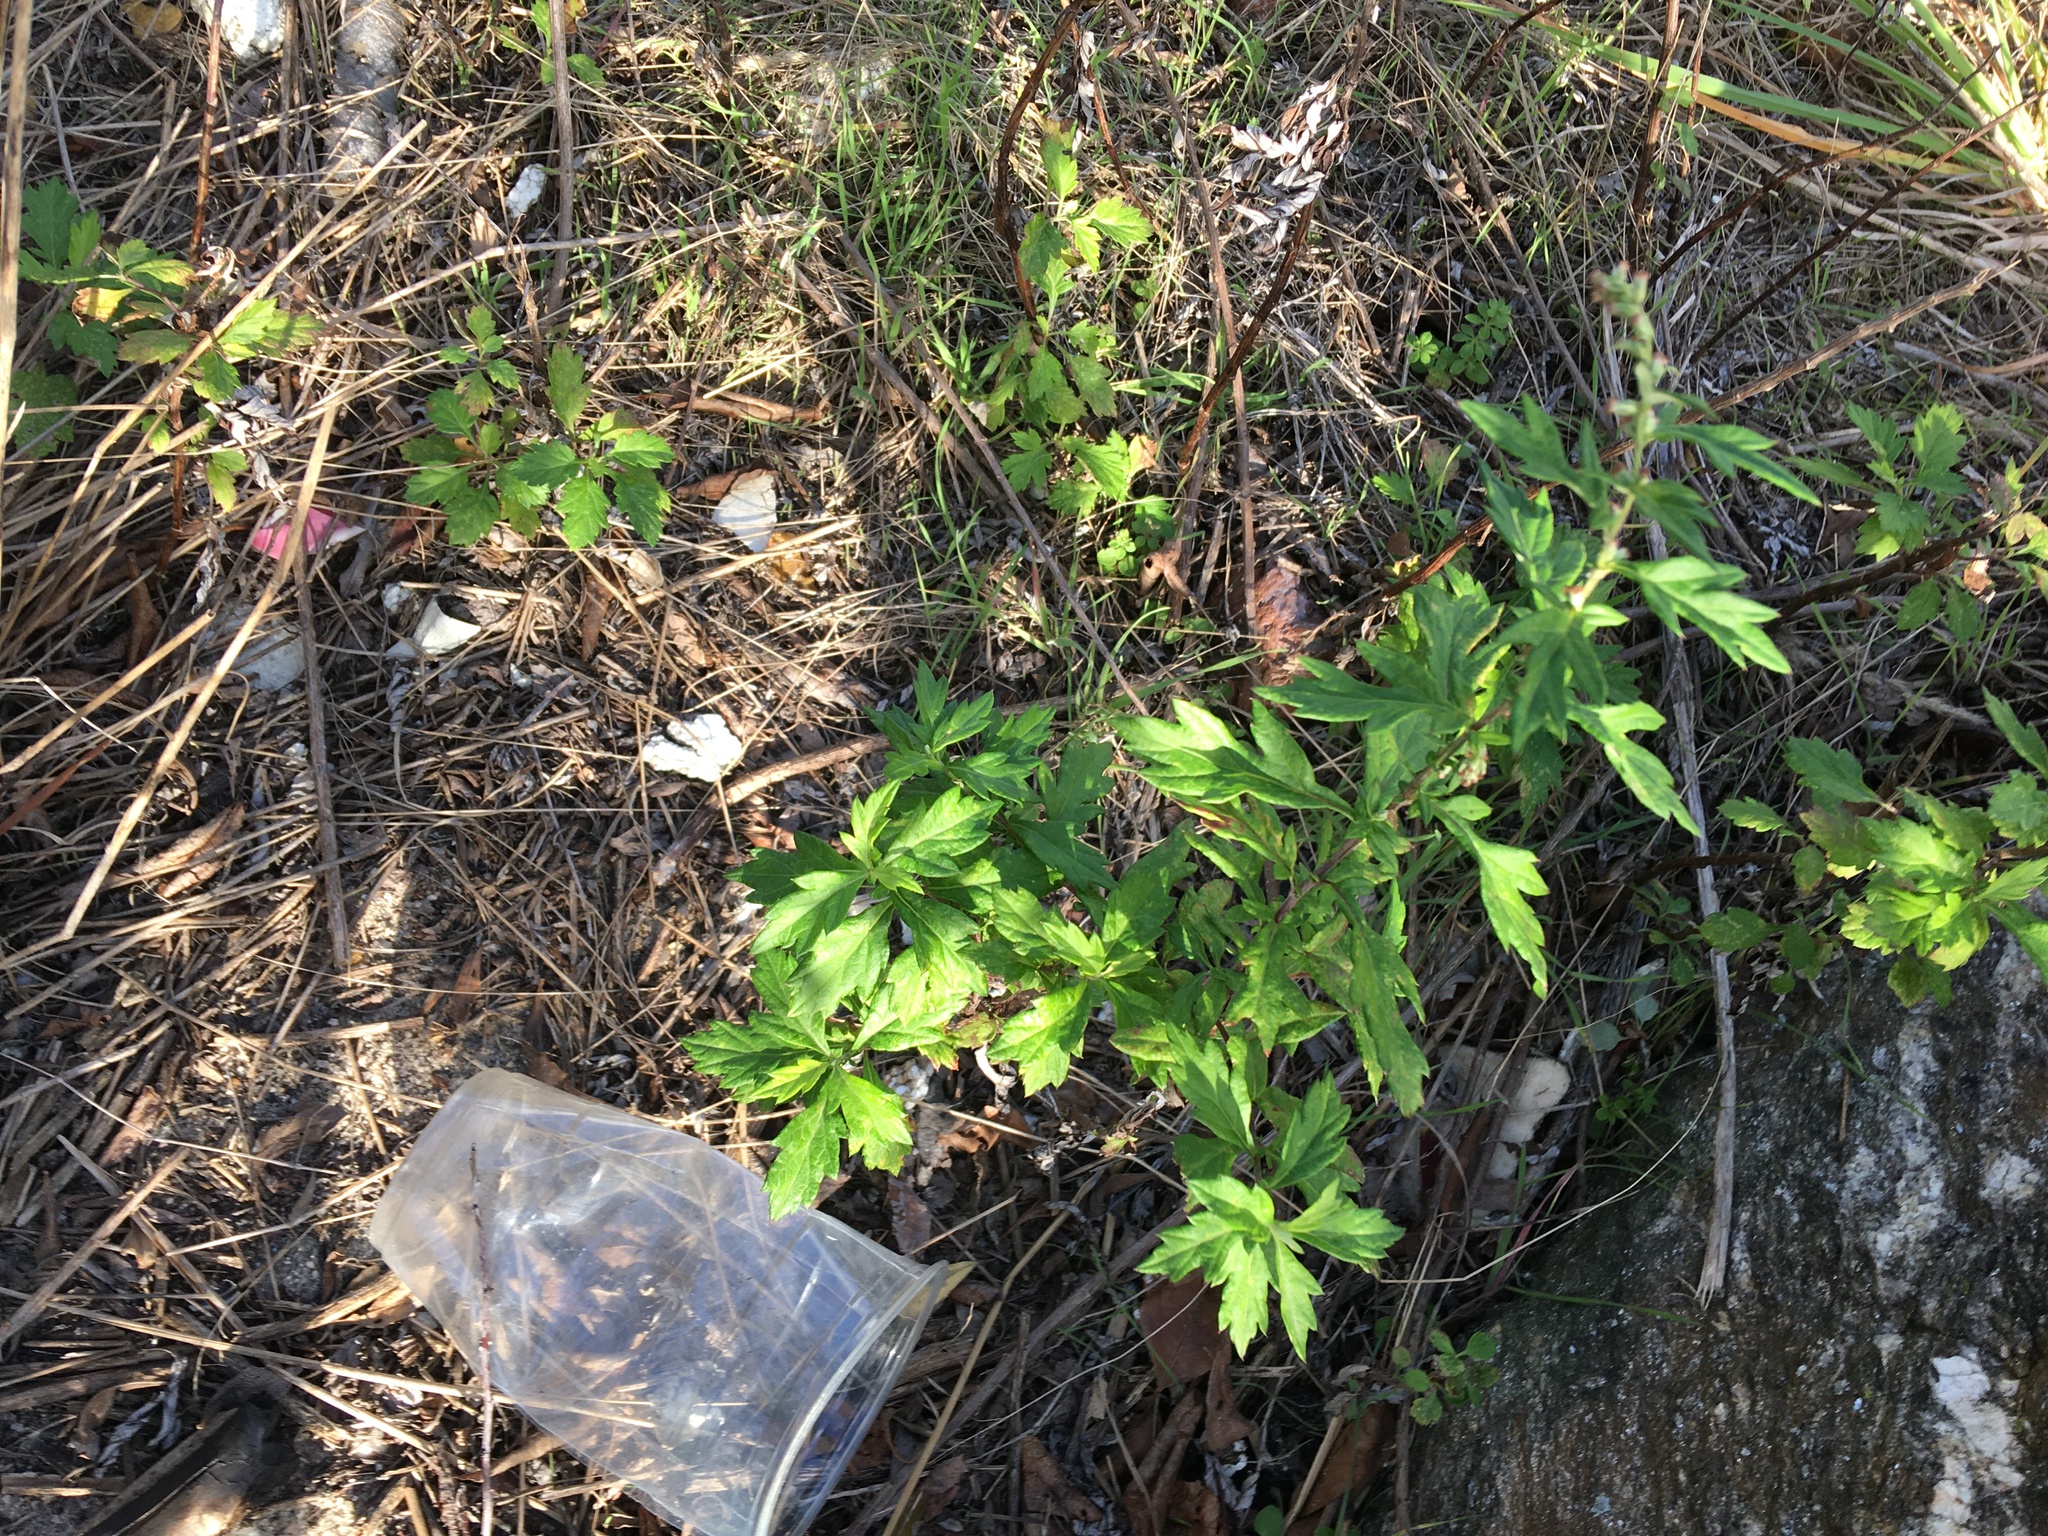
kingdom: Plantae
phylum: Tracheophyta
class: Magnoliopsida
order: Asterales
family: Asteraceae
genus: Artemisia
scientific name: Artemisia vulgaris
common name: Mugwort
